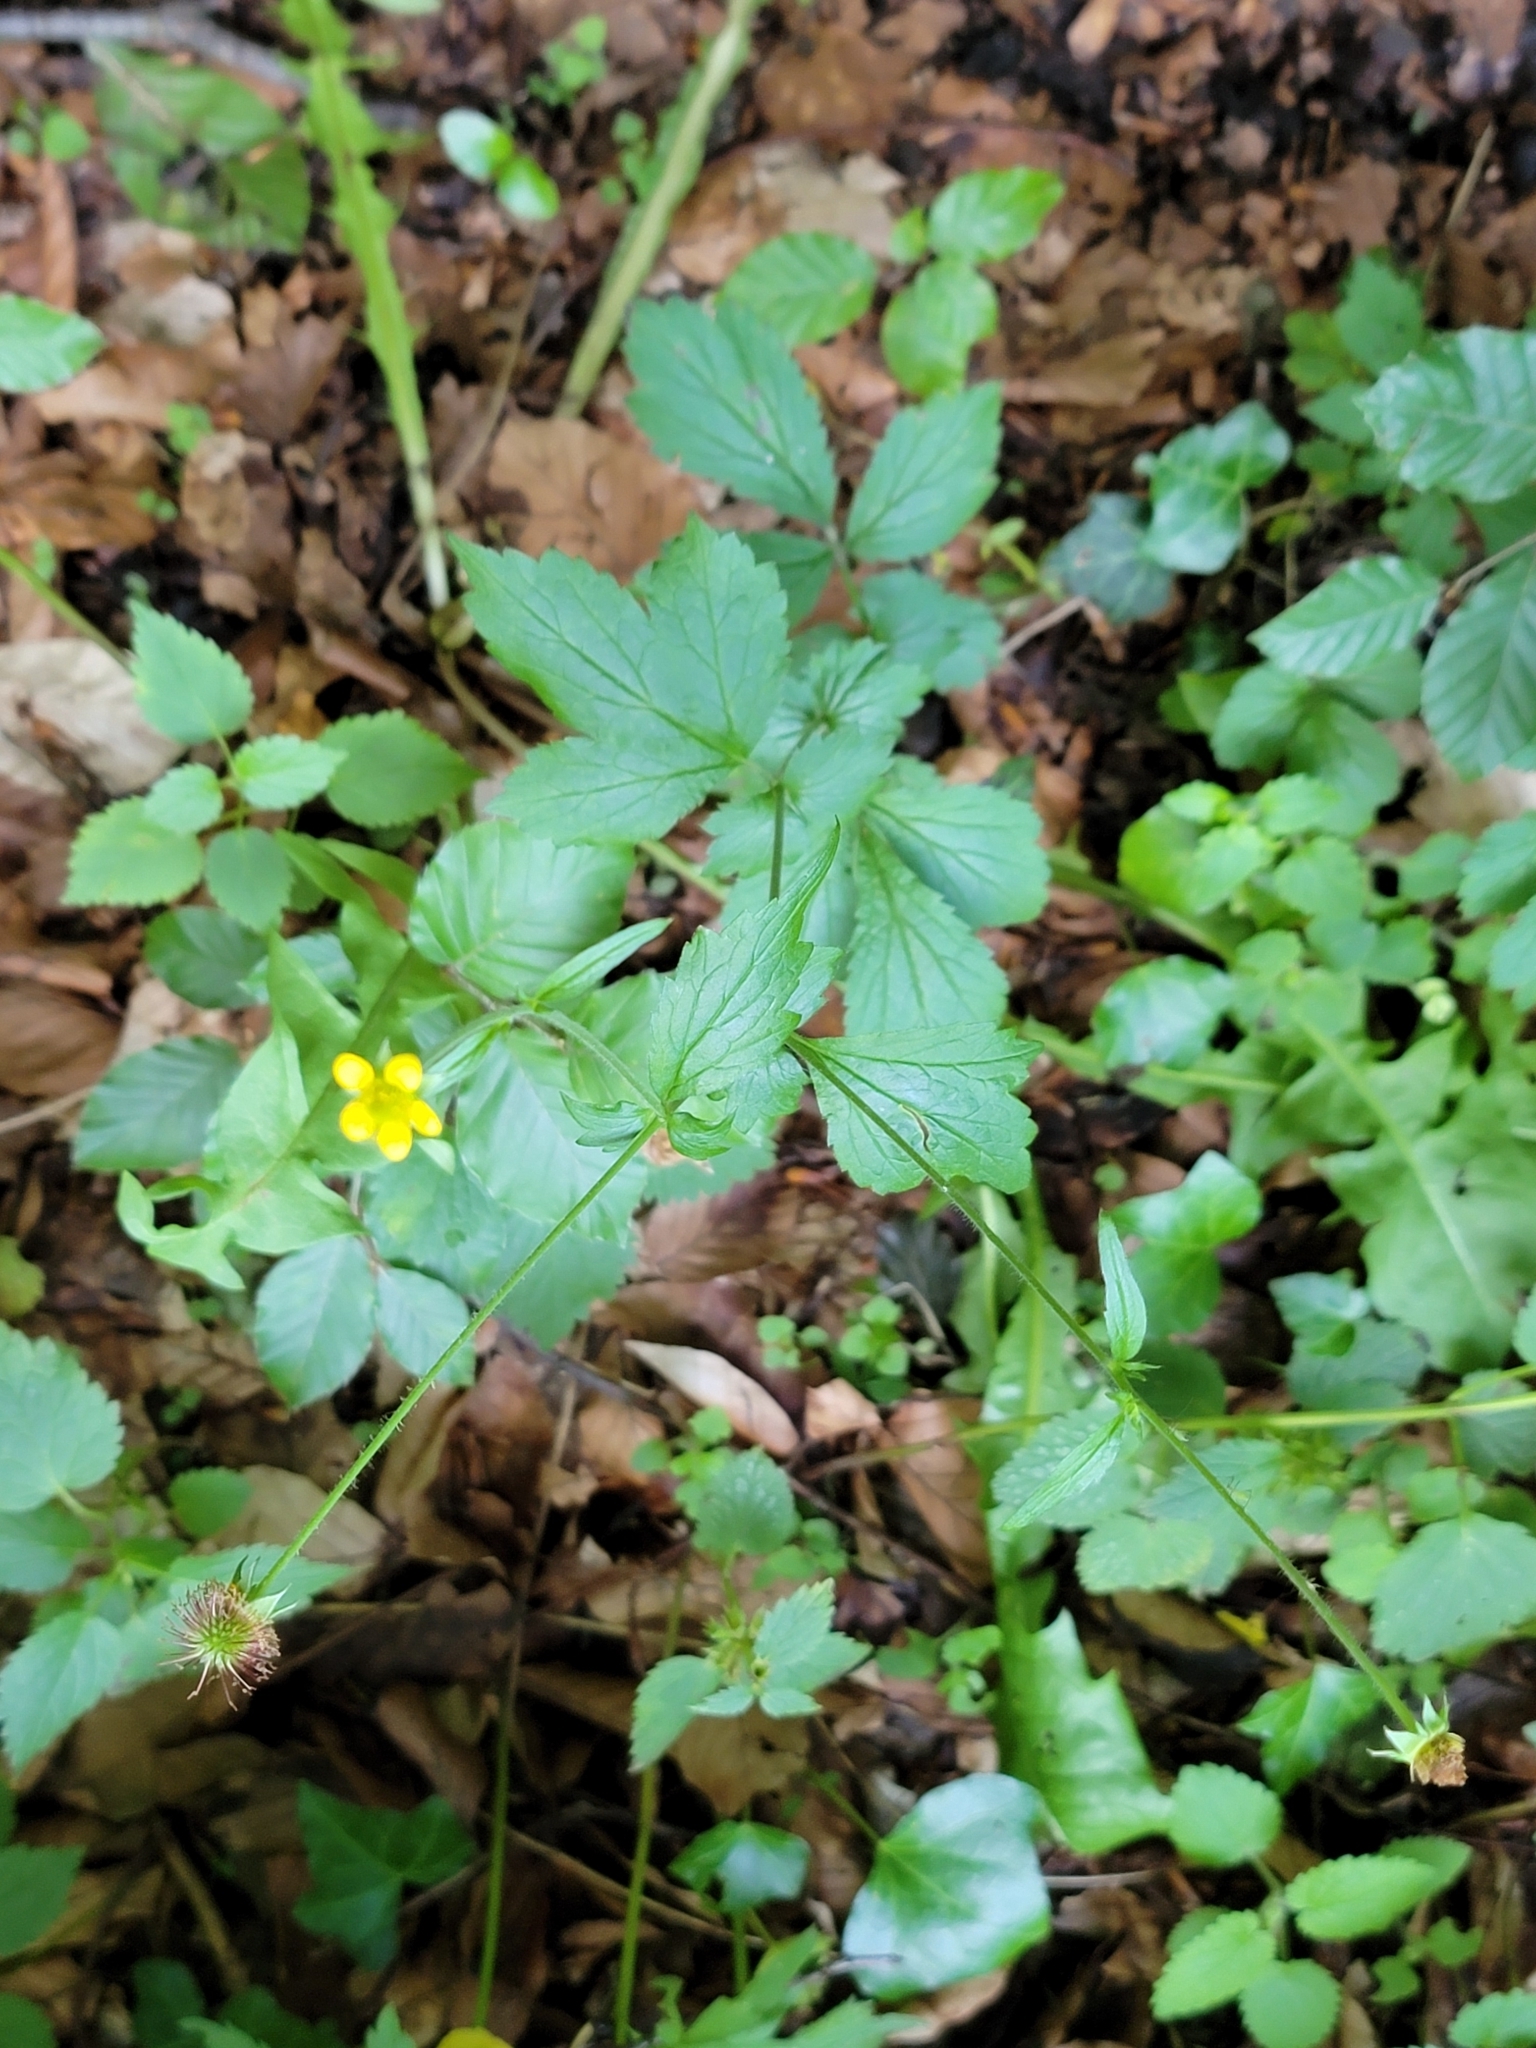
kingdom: Plantae
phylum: Tracheophyta
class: Magnoliopsida
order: Rosales
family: Rosaceae
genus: Geum
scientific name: Geum urbanum
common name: Wood avens
